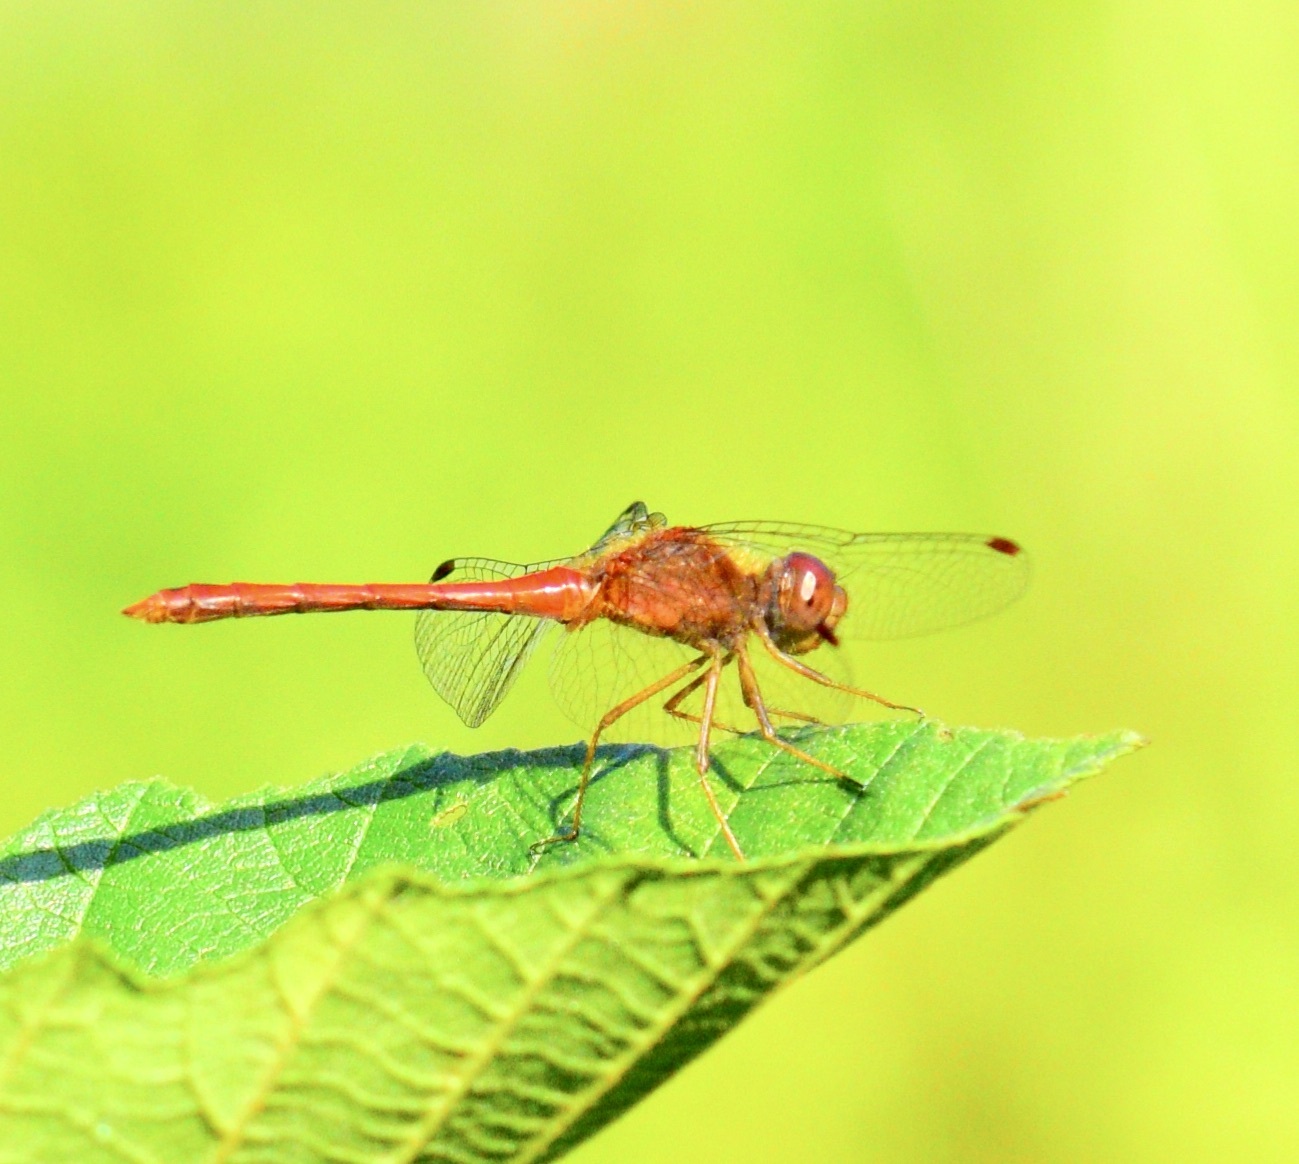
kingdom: Animalia
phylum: Arthropoda
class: Insecta
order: Odonata
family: Libellulidae
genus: Sympetrum
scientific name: Sympetrum vicinum
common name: Autumn meadowhawk
